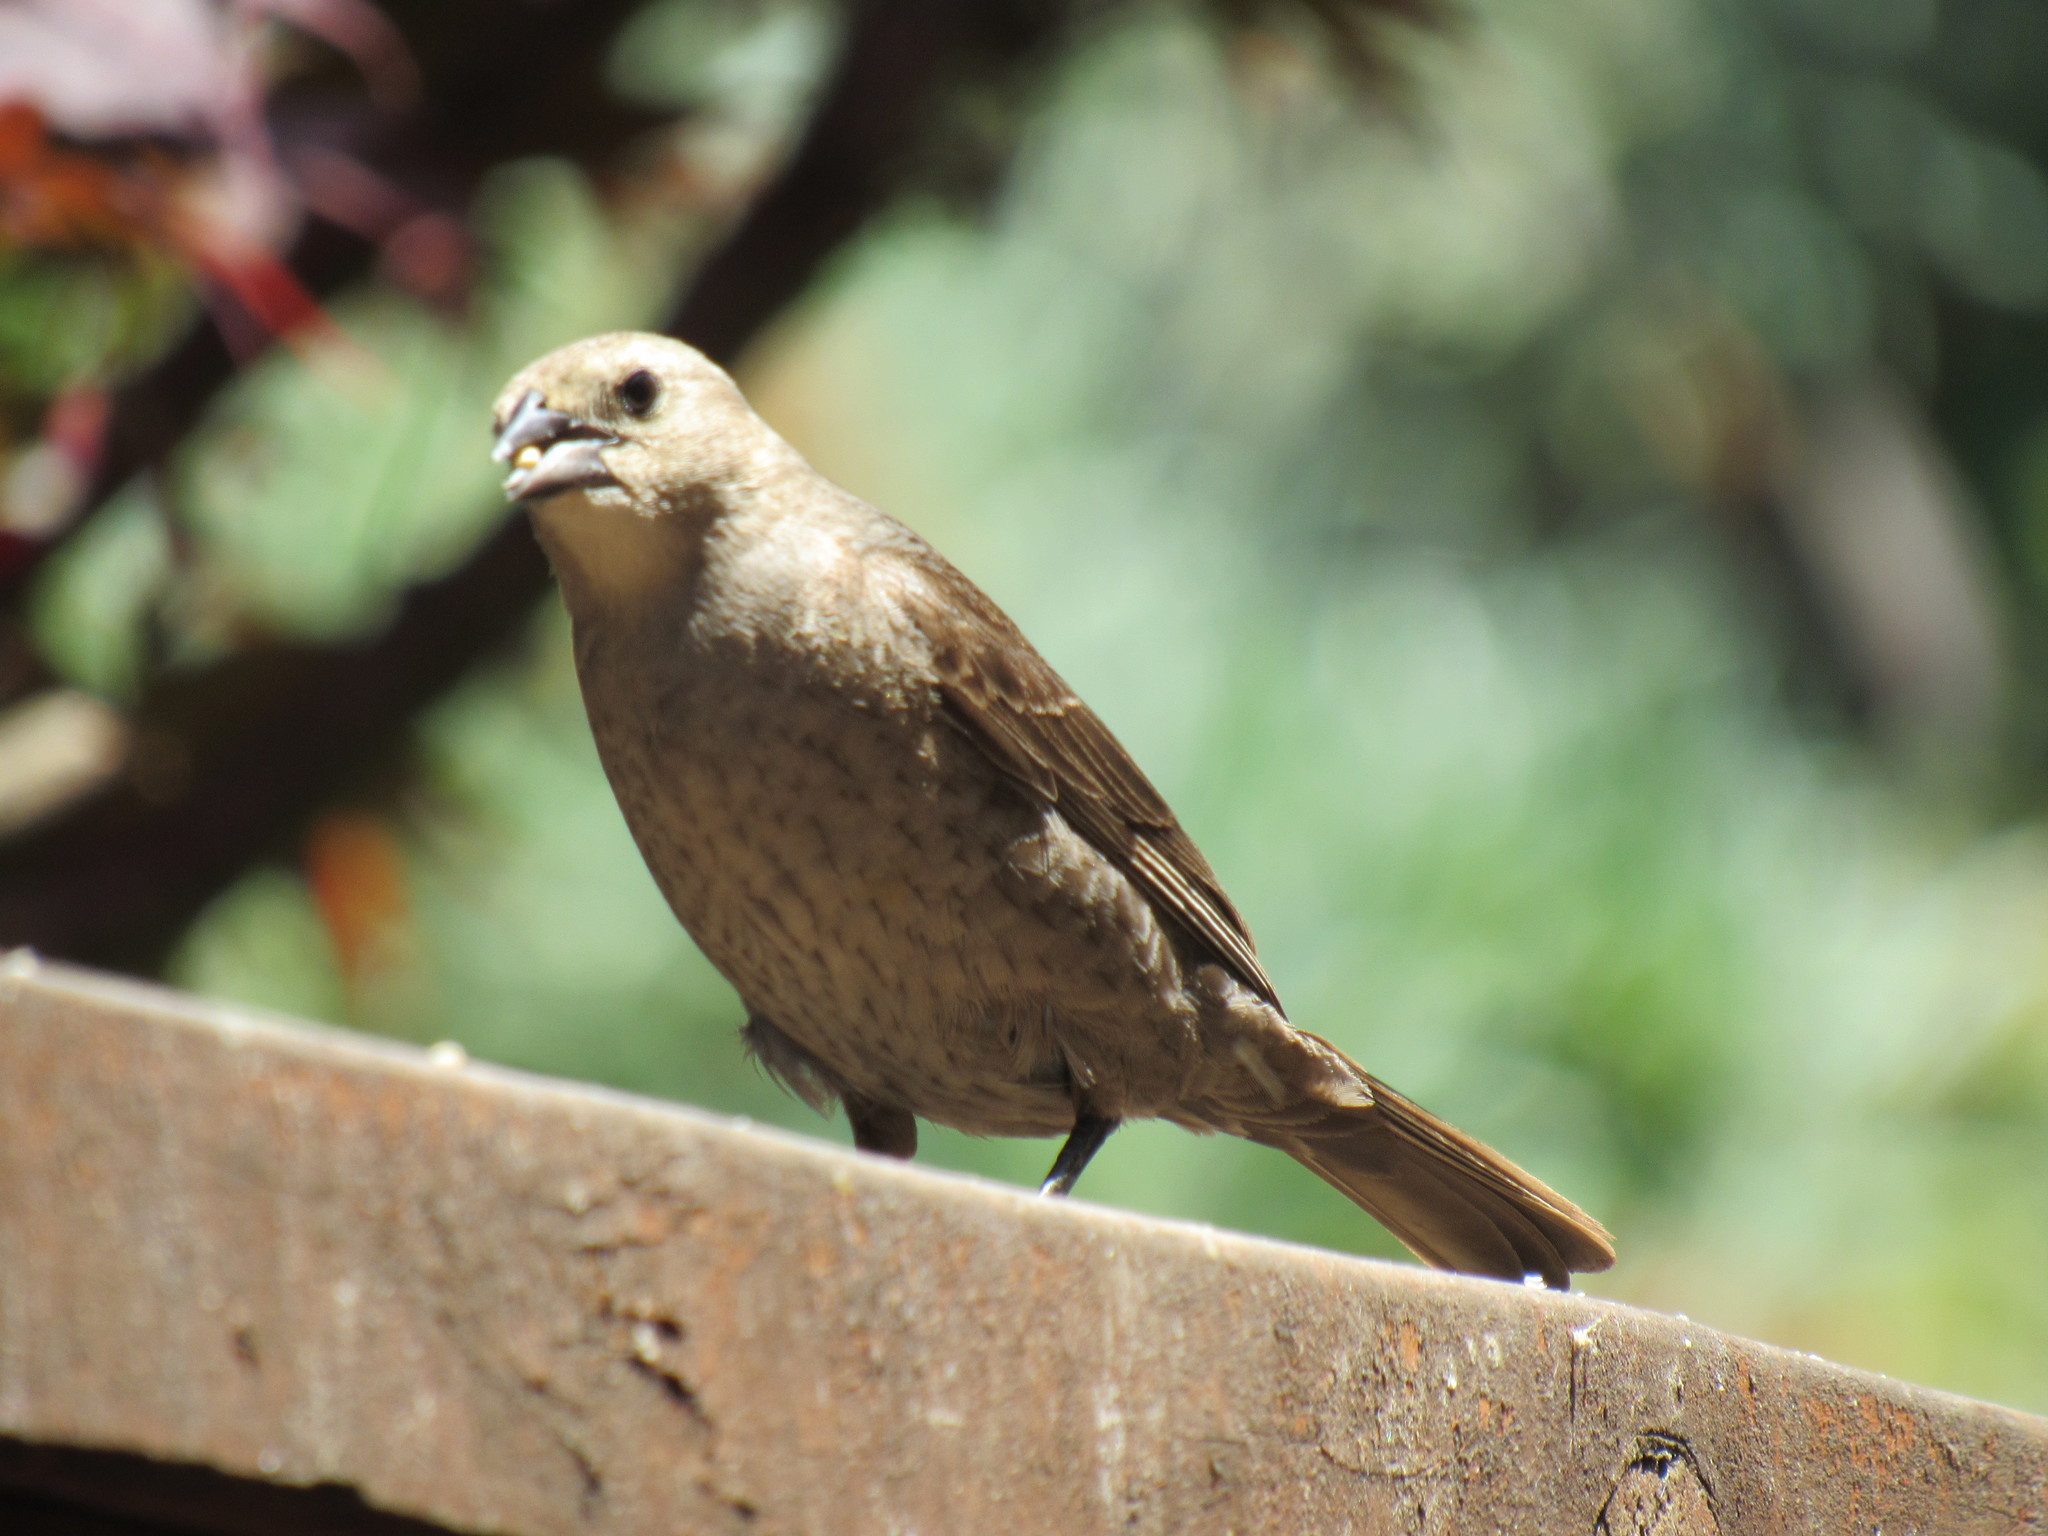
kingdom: Animalia
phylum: Chordata
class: Aves
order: Passeriformes
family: Icteridae
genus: Euphagus
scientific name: Euphagus cyanocephalus
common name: Brewer's blackbird
